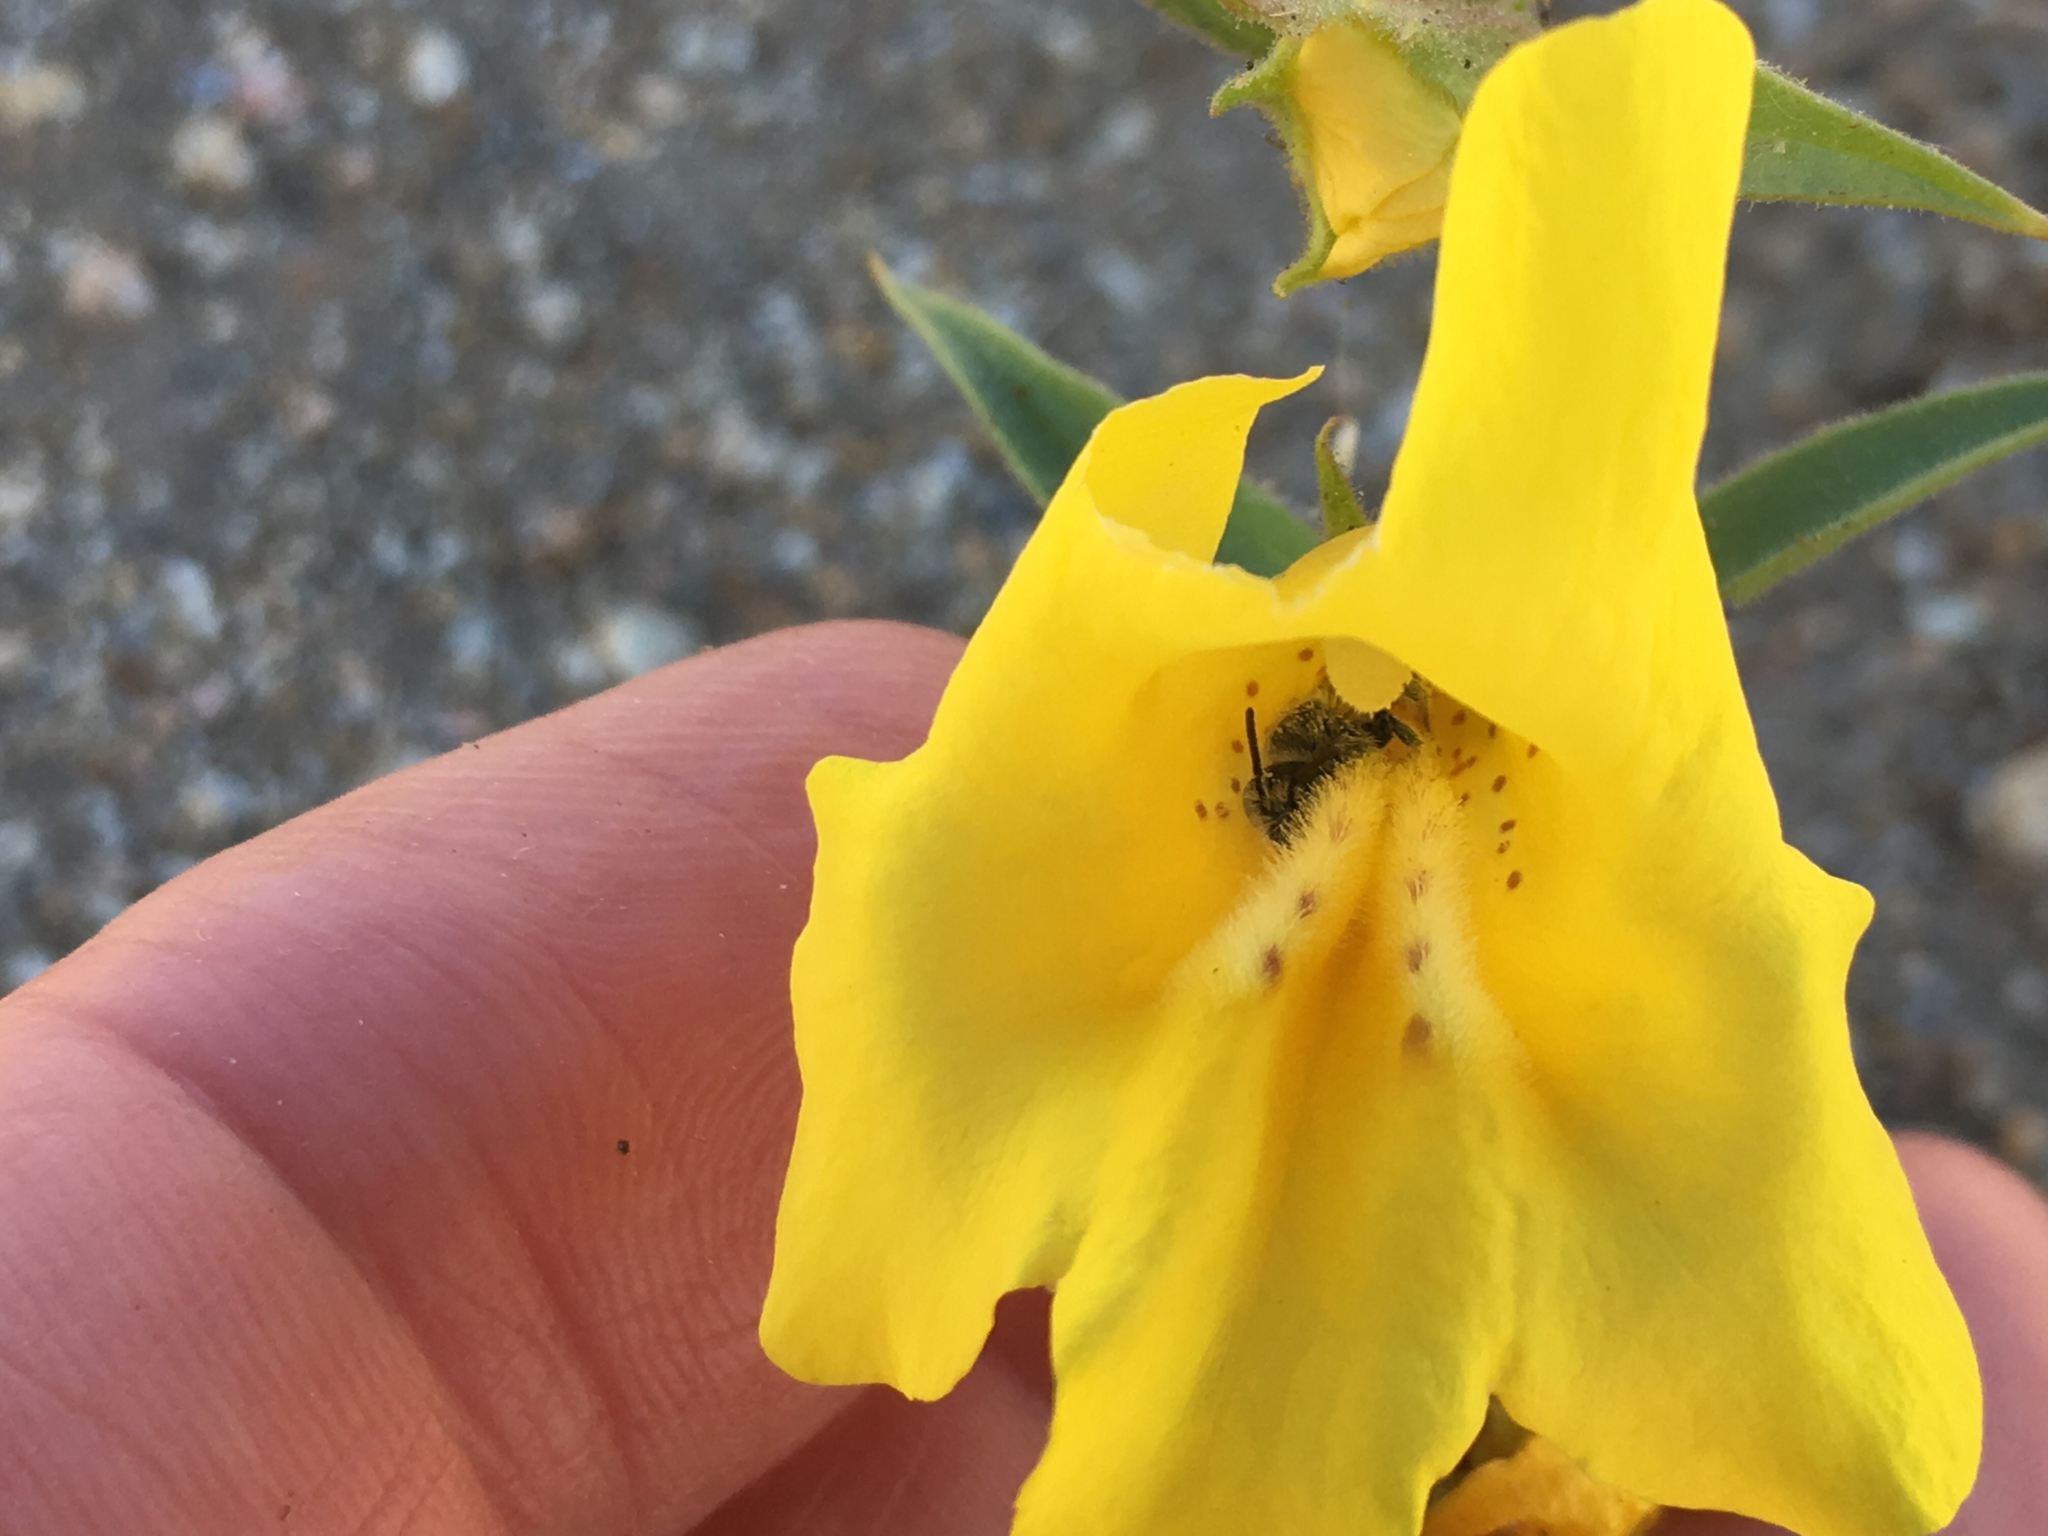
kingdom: Plantae
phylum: Tracheophyta
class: Magnoliopsida
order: Lamiales
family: Phrymaceae
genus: Diplacus
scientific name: Diplacus brevipes
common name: Wide-throat yellow monkey-flower
